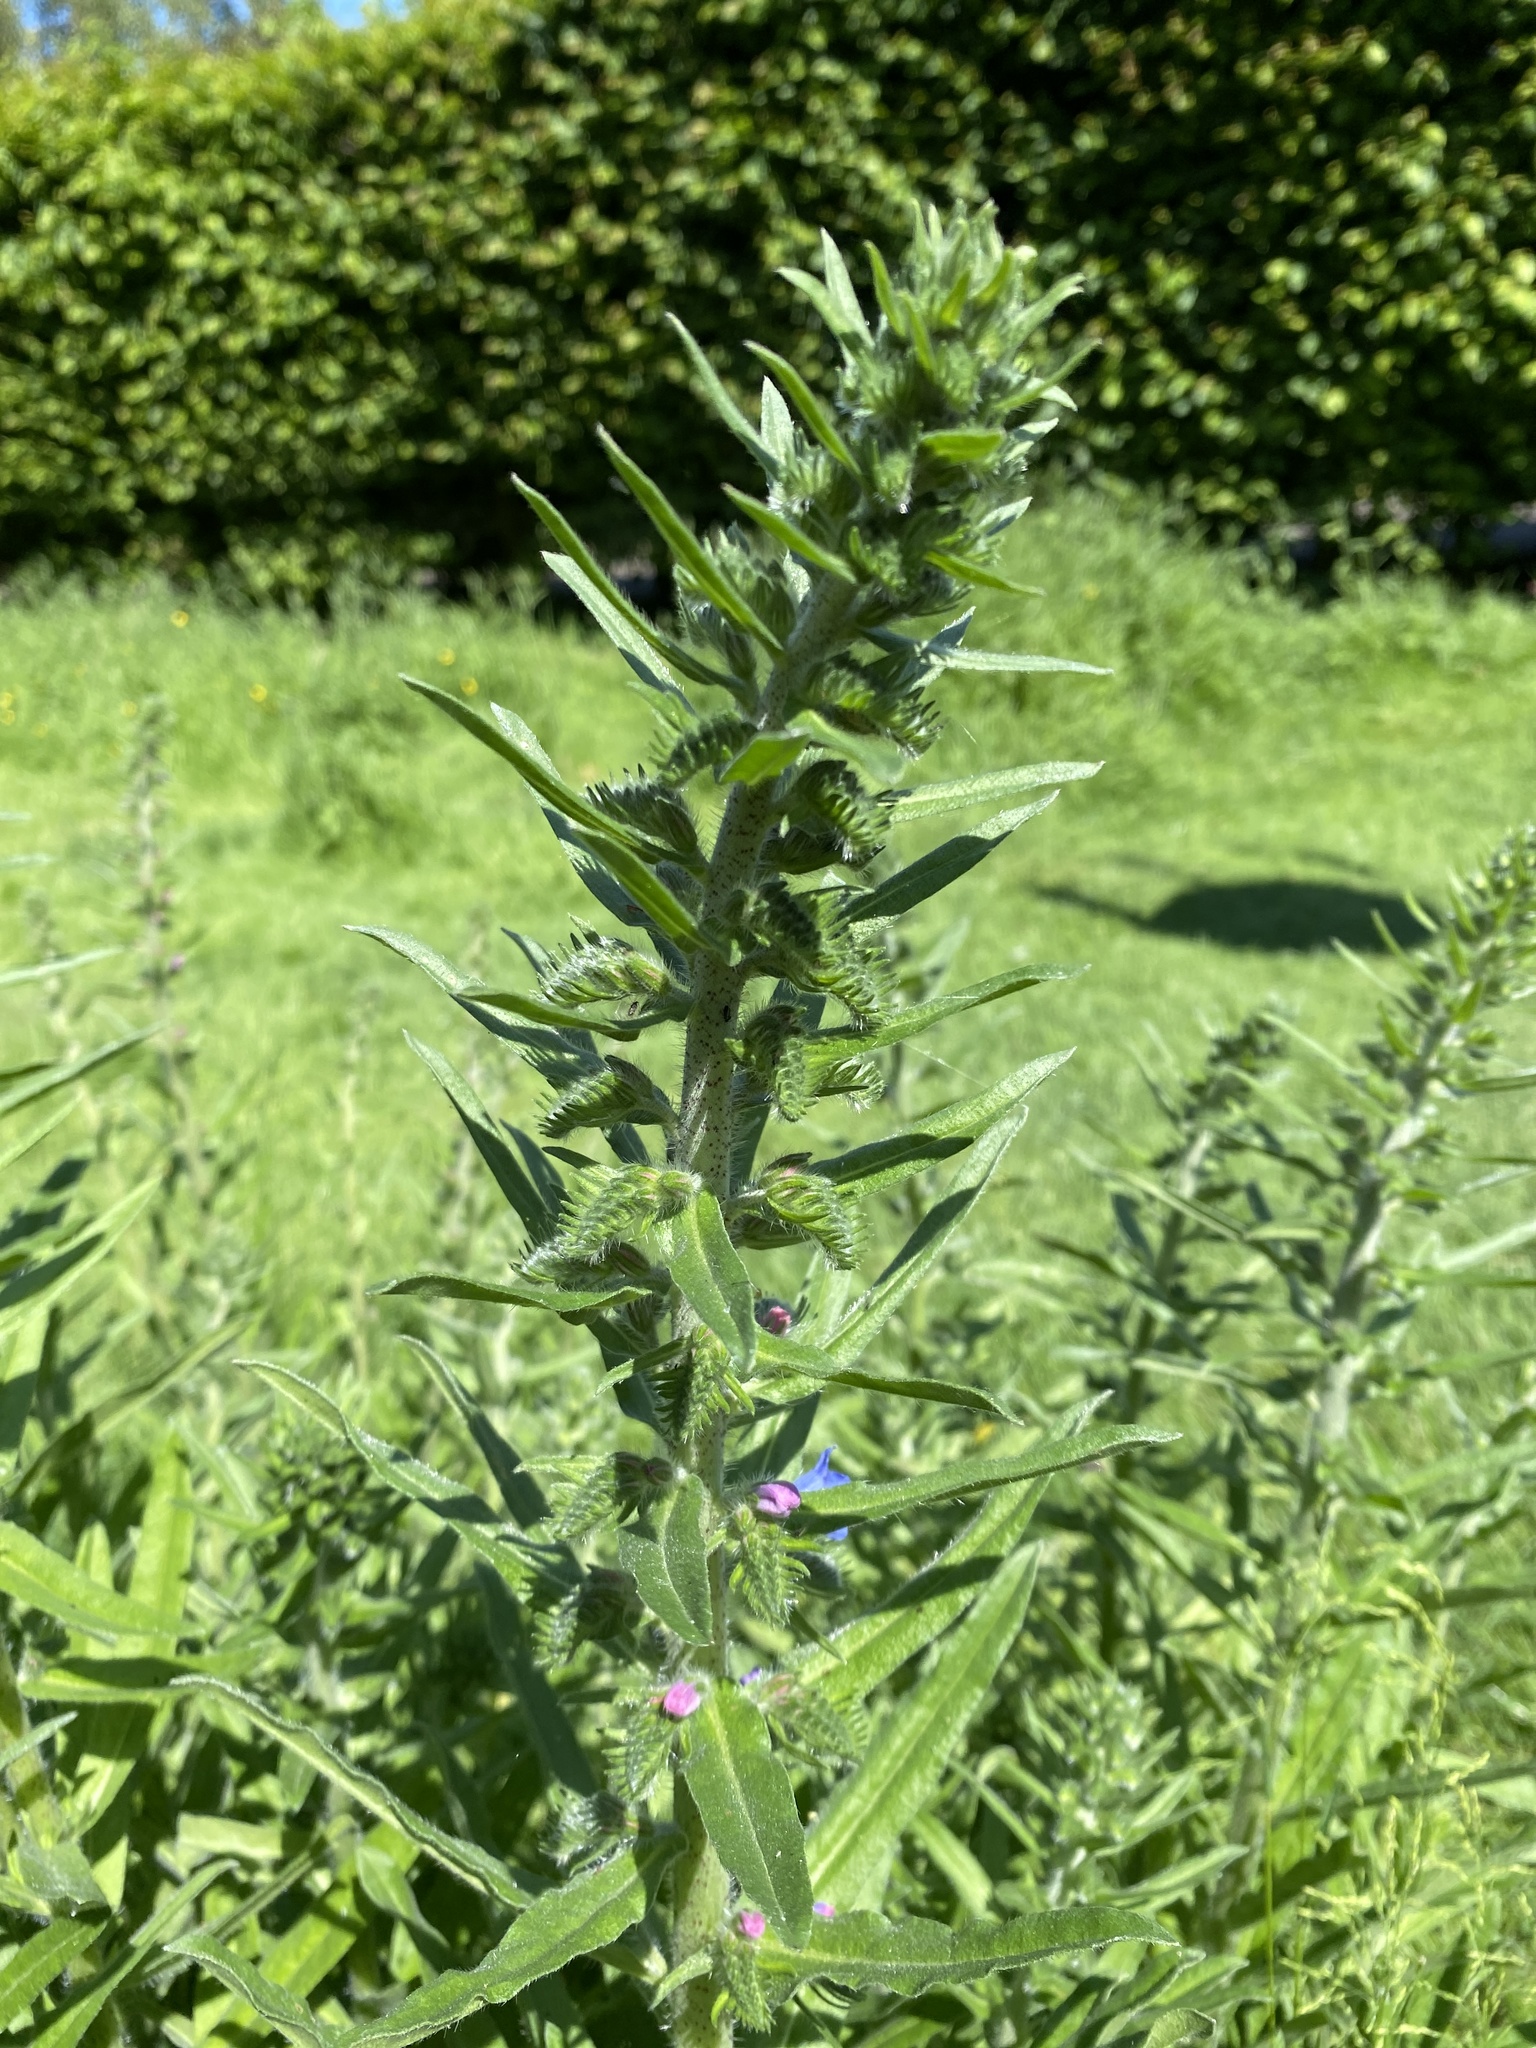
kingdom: Plantae
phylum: Tracheophyta
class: Magnoliopsida
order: Boraginales
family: Boraginaceae
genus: Echium
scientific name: Echium vulgare
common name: Common viper's bugloss
